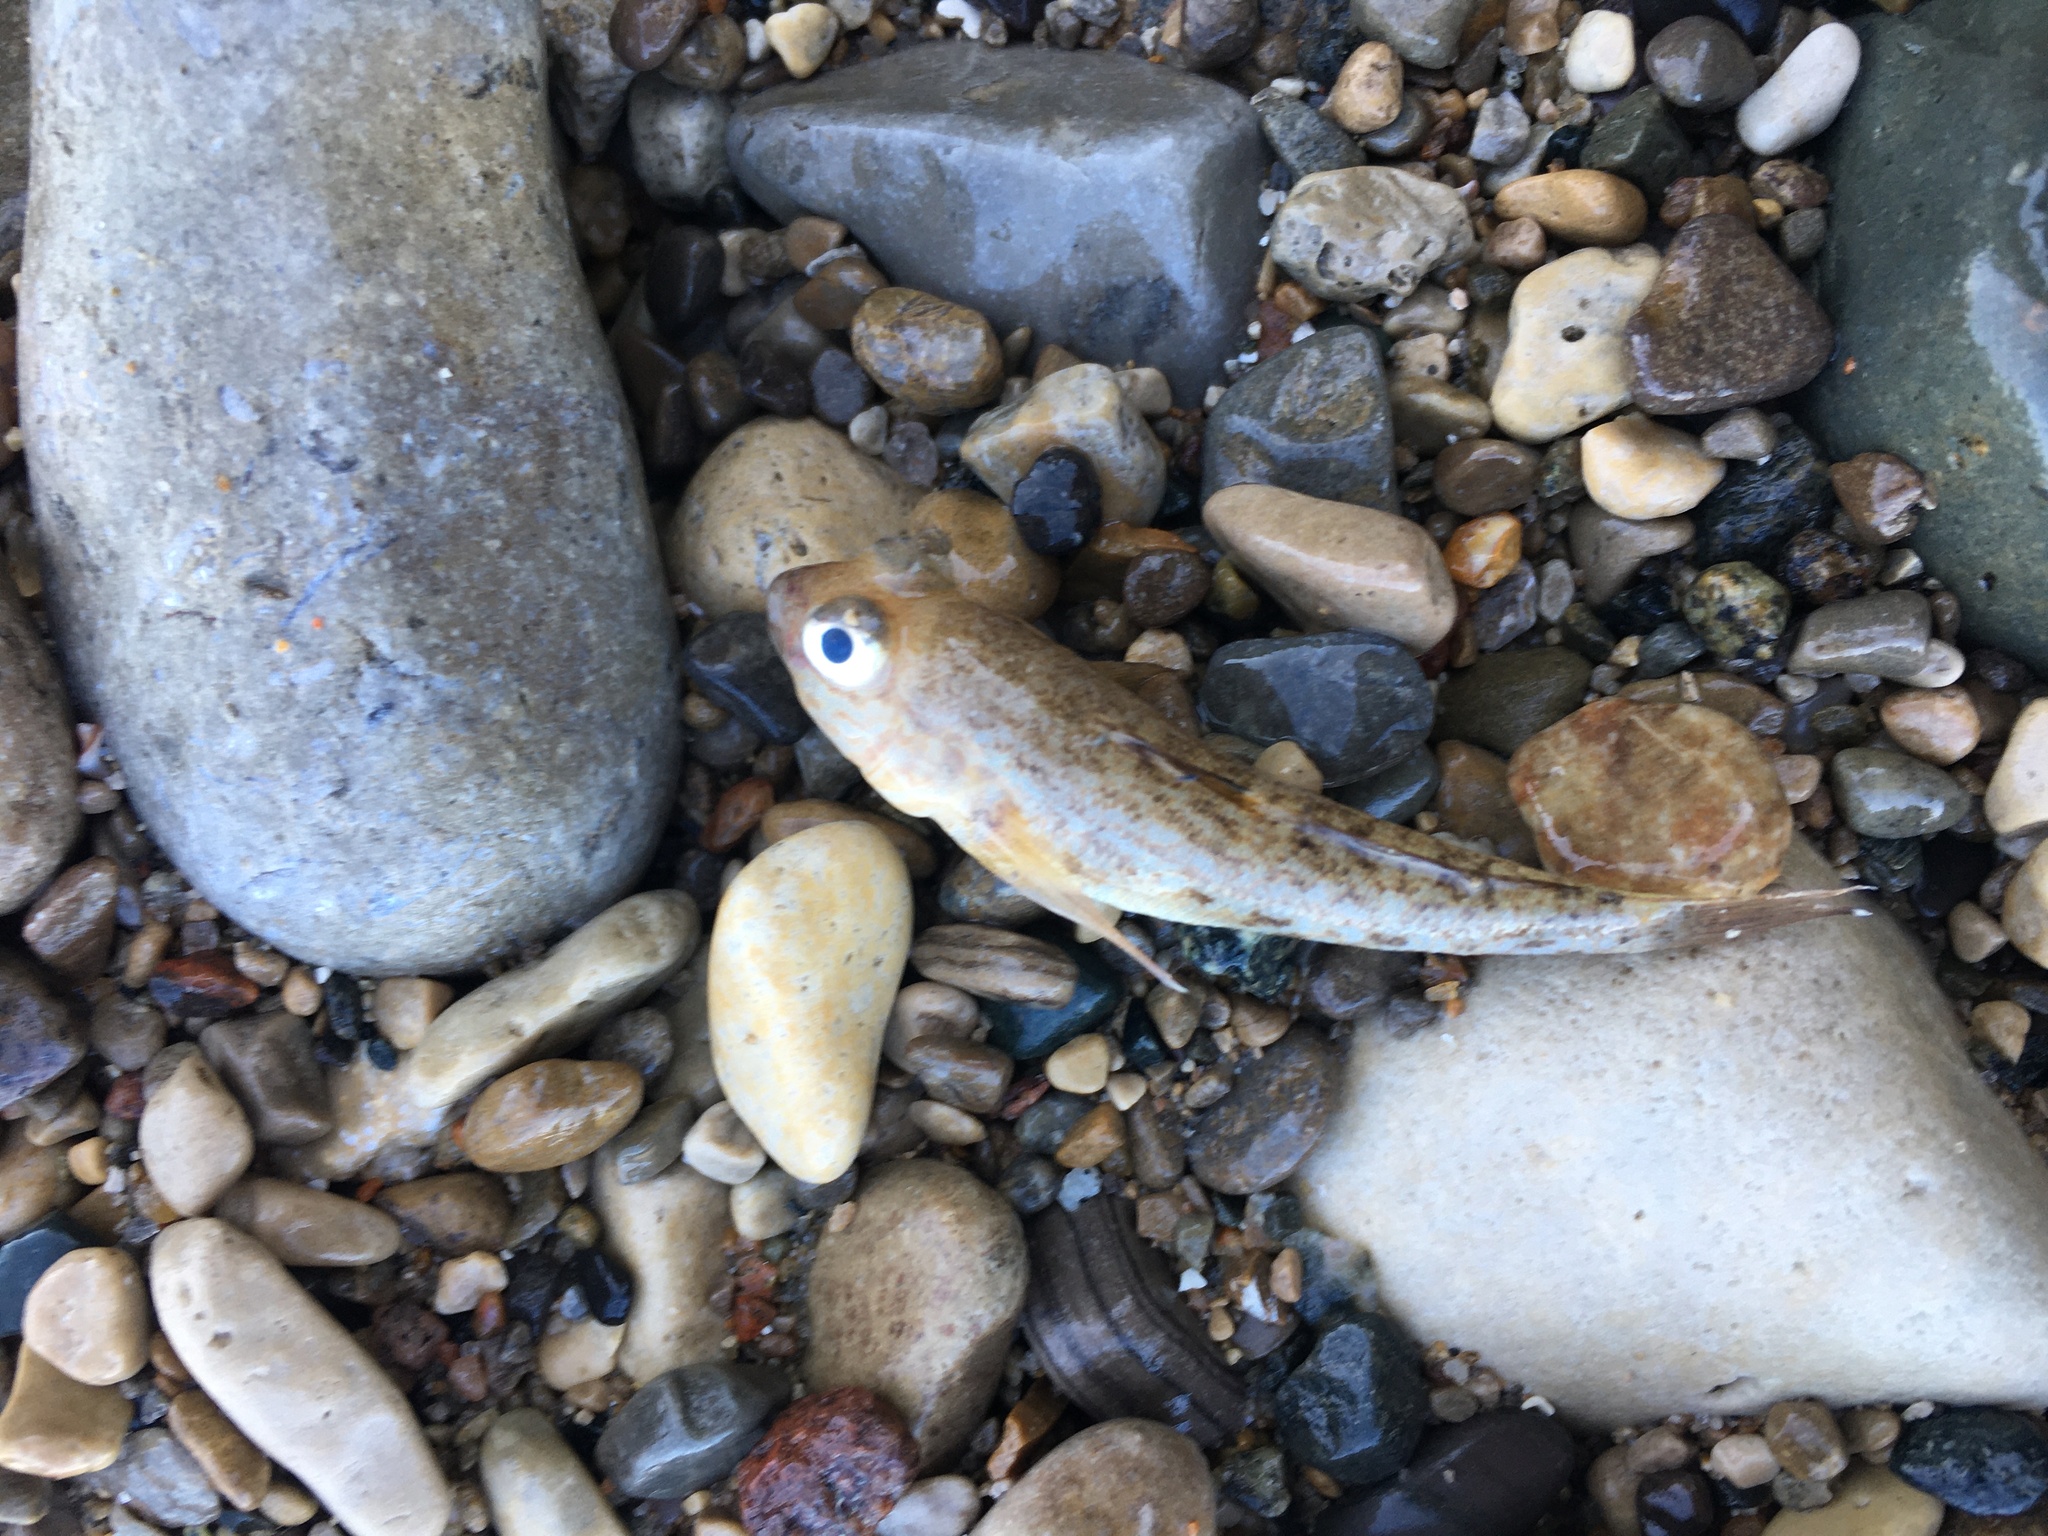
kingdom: Animalia
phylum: Chordata
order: Perciformes
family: Gobiidae
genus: Neogobius
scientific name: Neogobius melanostomus
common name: Round goby
